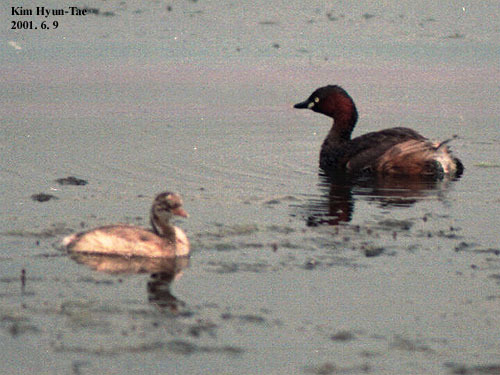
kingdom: Animalia
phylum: Chordata
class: Aves
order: Podicipediformes
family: Podicipedidae
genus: Tachybaptus
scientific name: Tachybaptus ruficollis
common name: Little grebe
